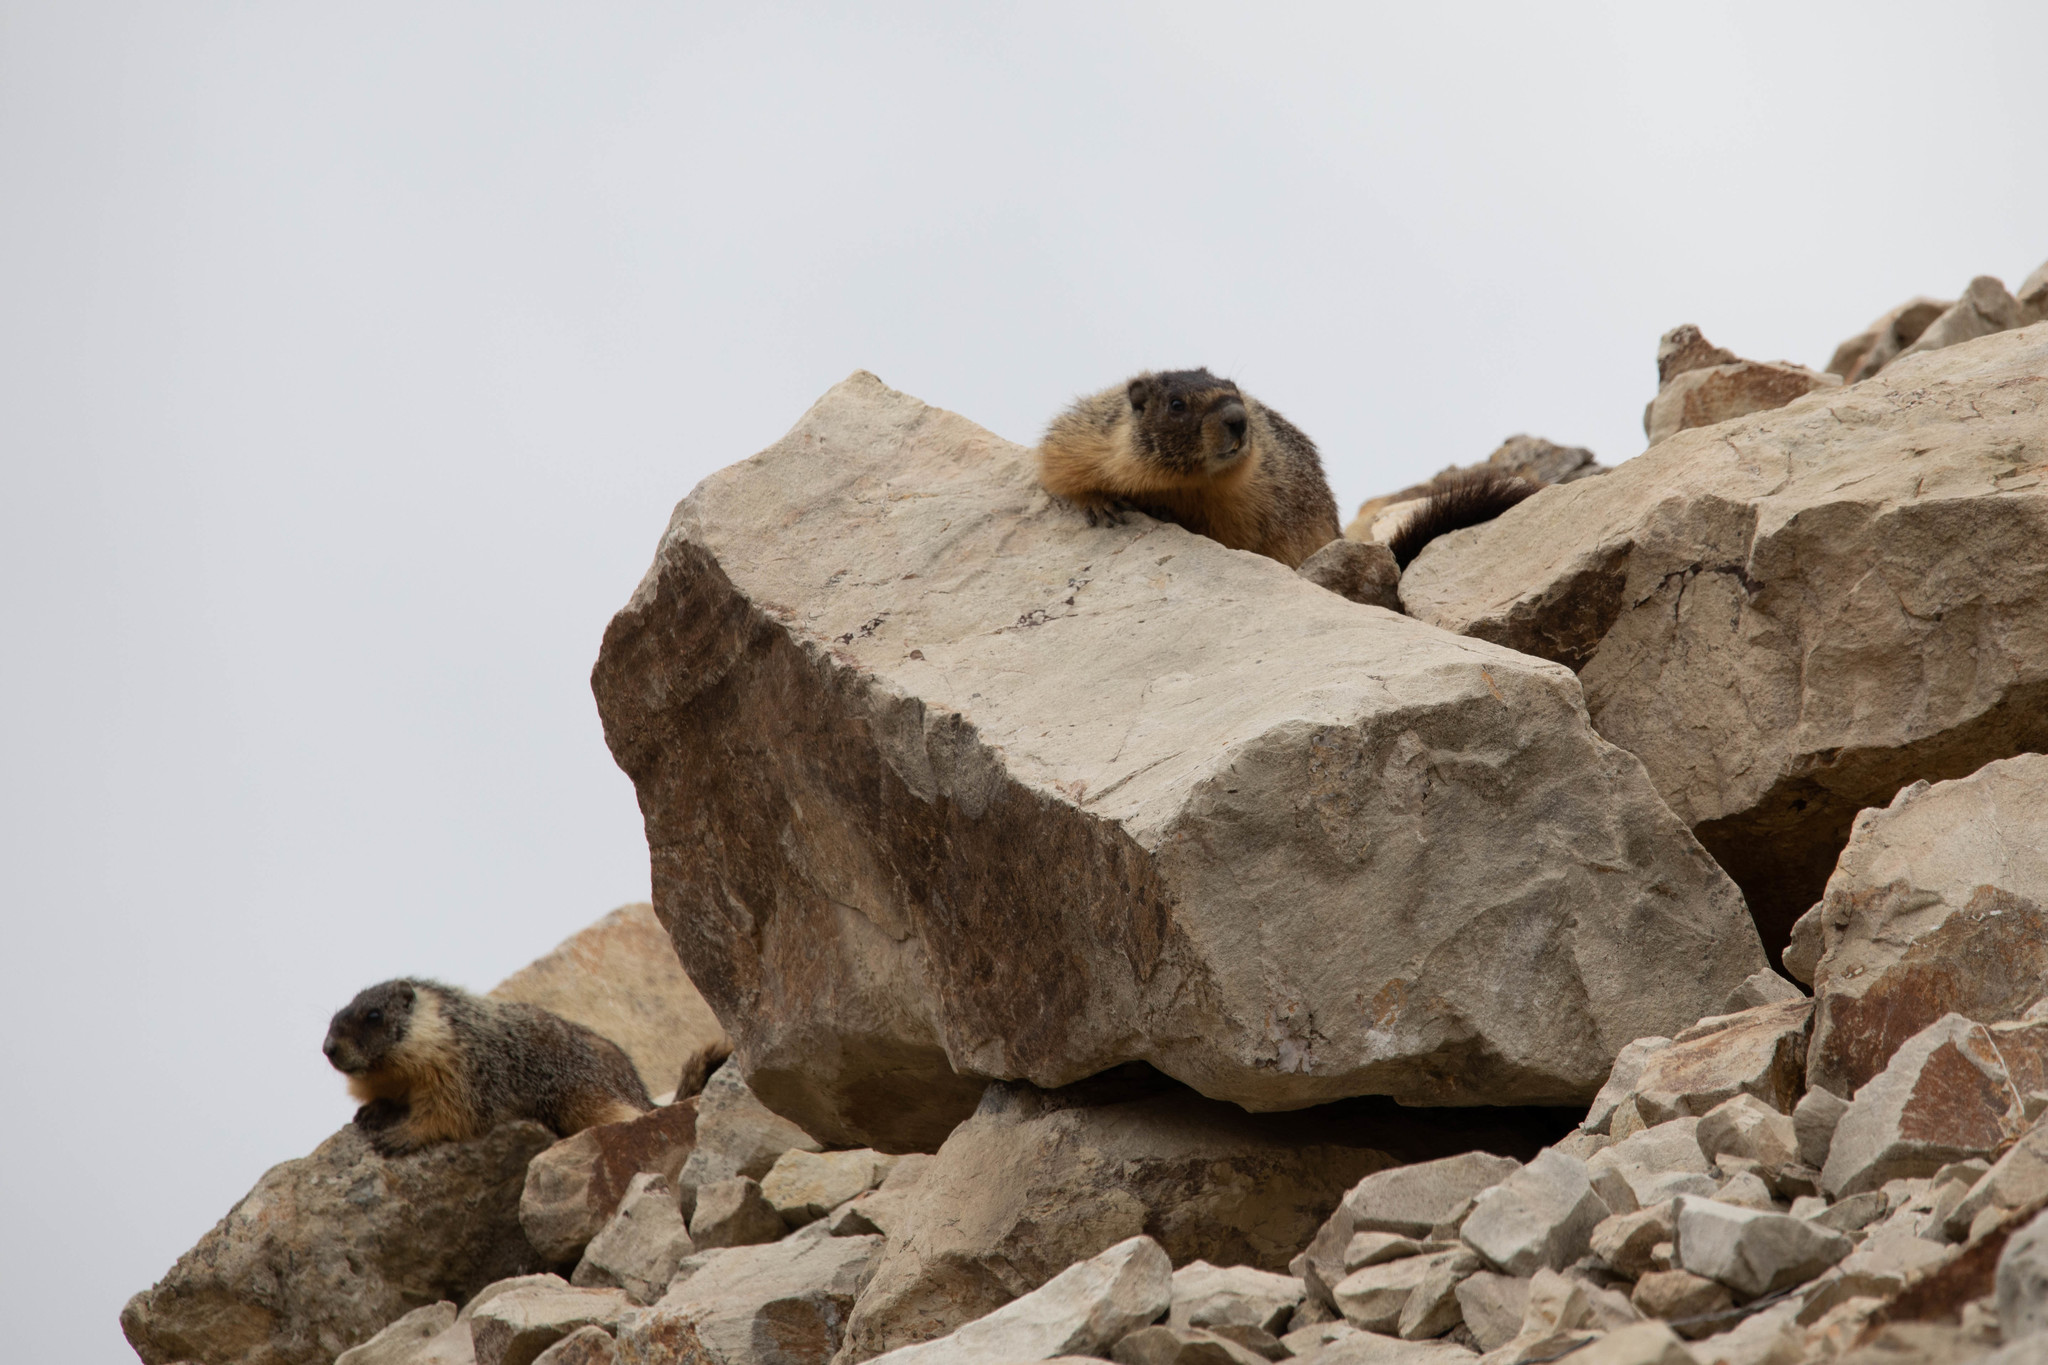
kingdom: Animalia
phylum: Chordata
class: Mammalia
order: Rodentia
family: Sciuridae
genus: Marmota
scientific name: Marmota flaviventris
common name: Yellow-bellied marmot
